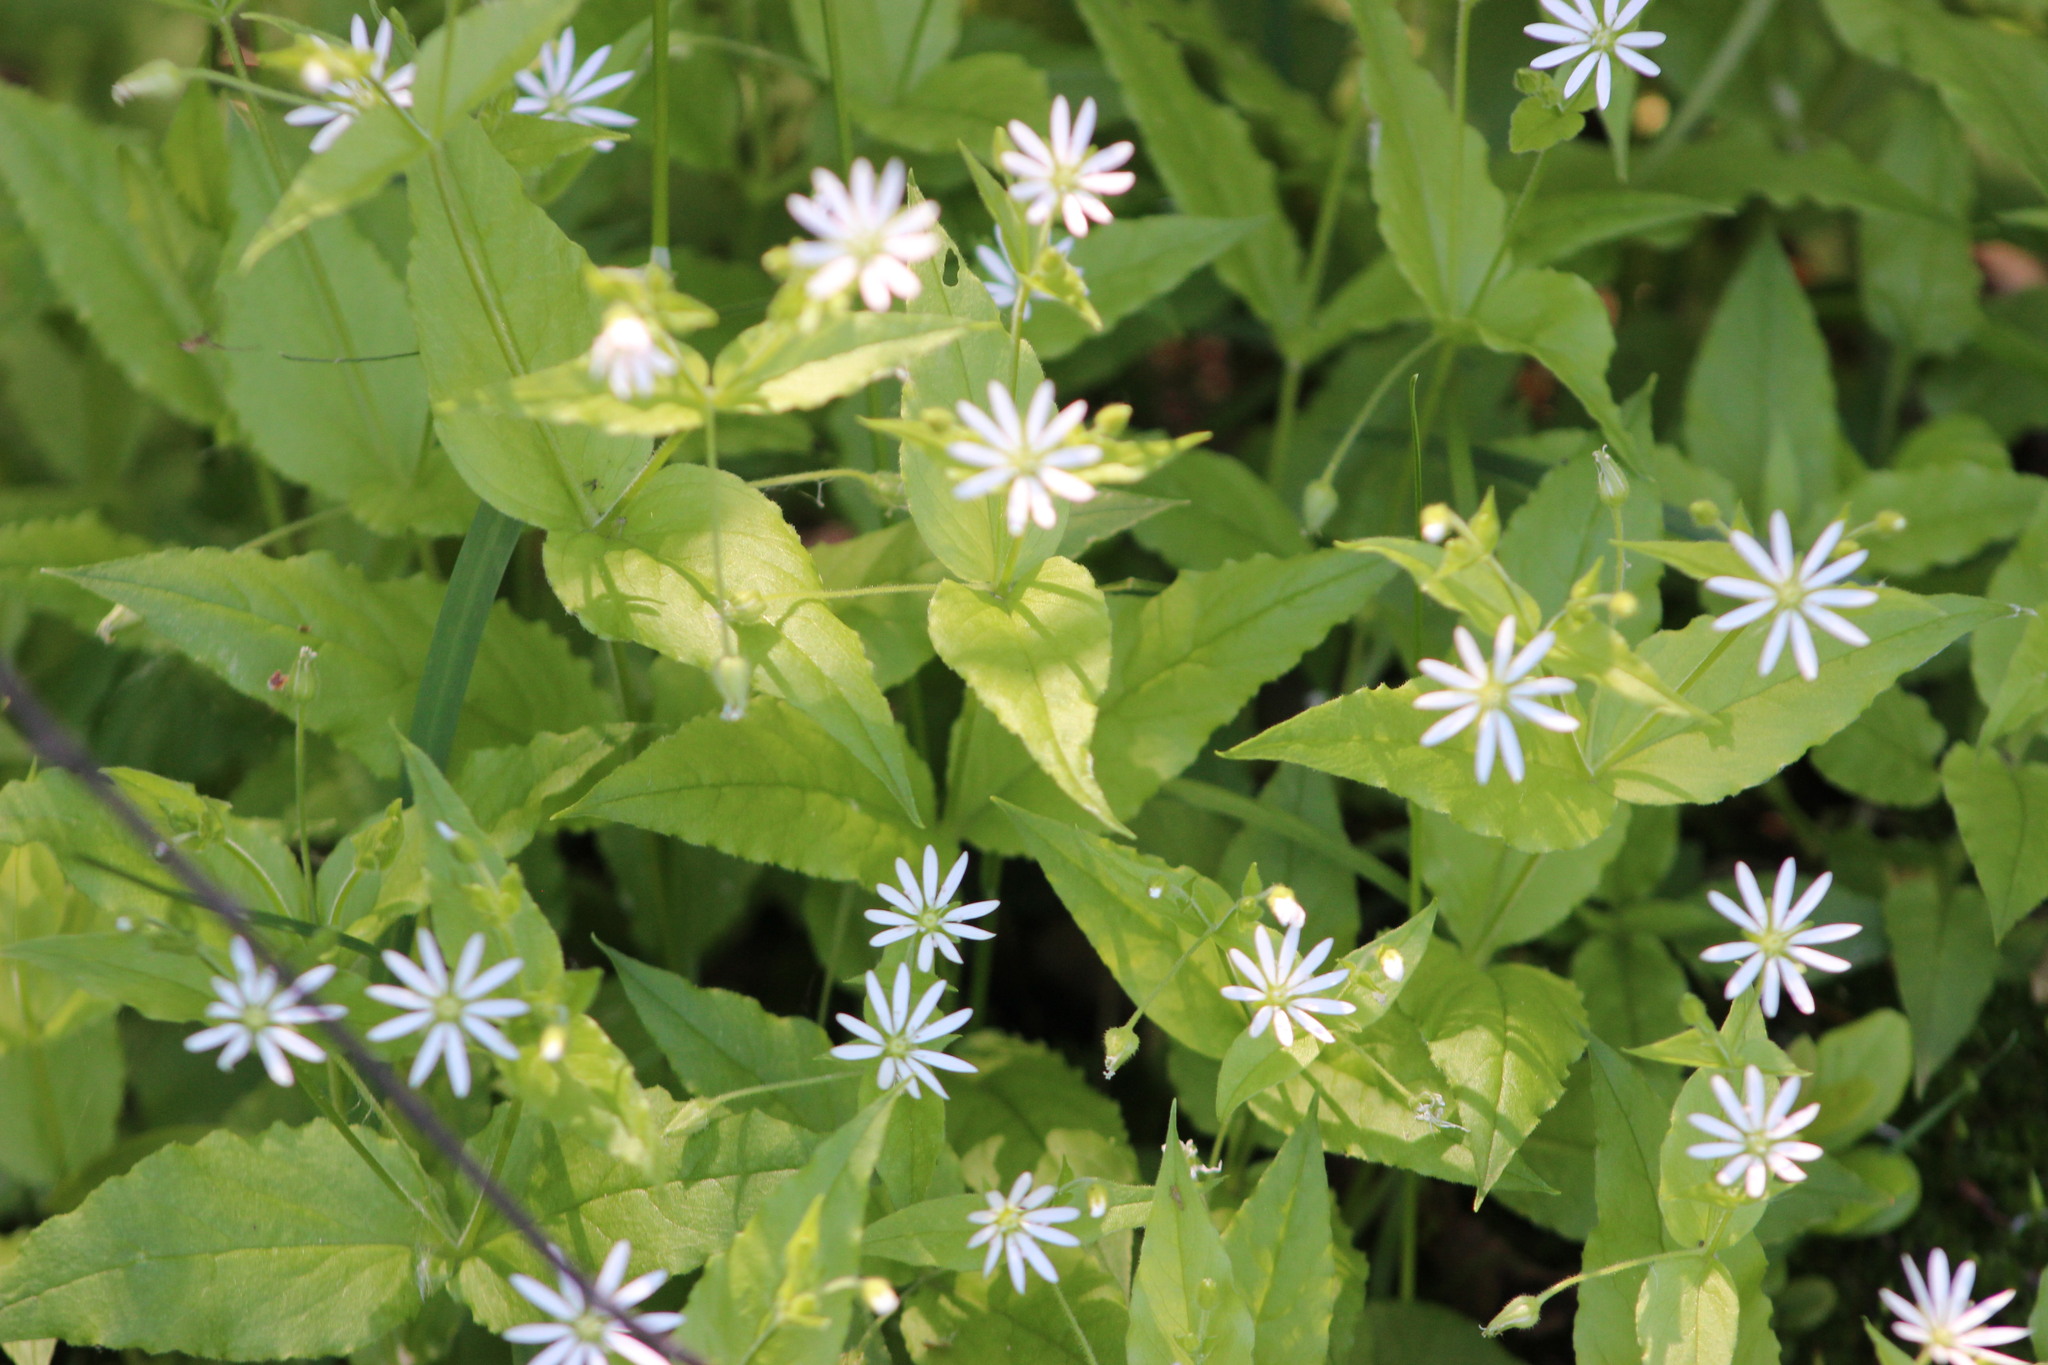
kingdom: Plantae
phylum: Tracheophyta
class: Magnoliopsida
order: Caryophyllales
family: Caryophyllaceae
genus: Stellaria
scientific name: Stellaria bungeana
